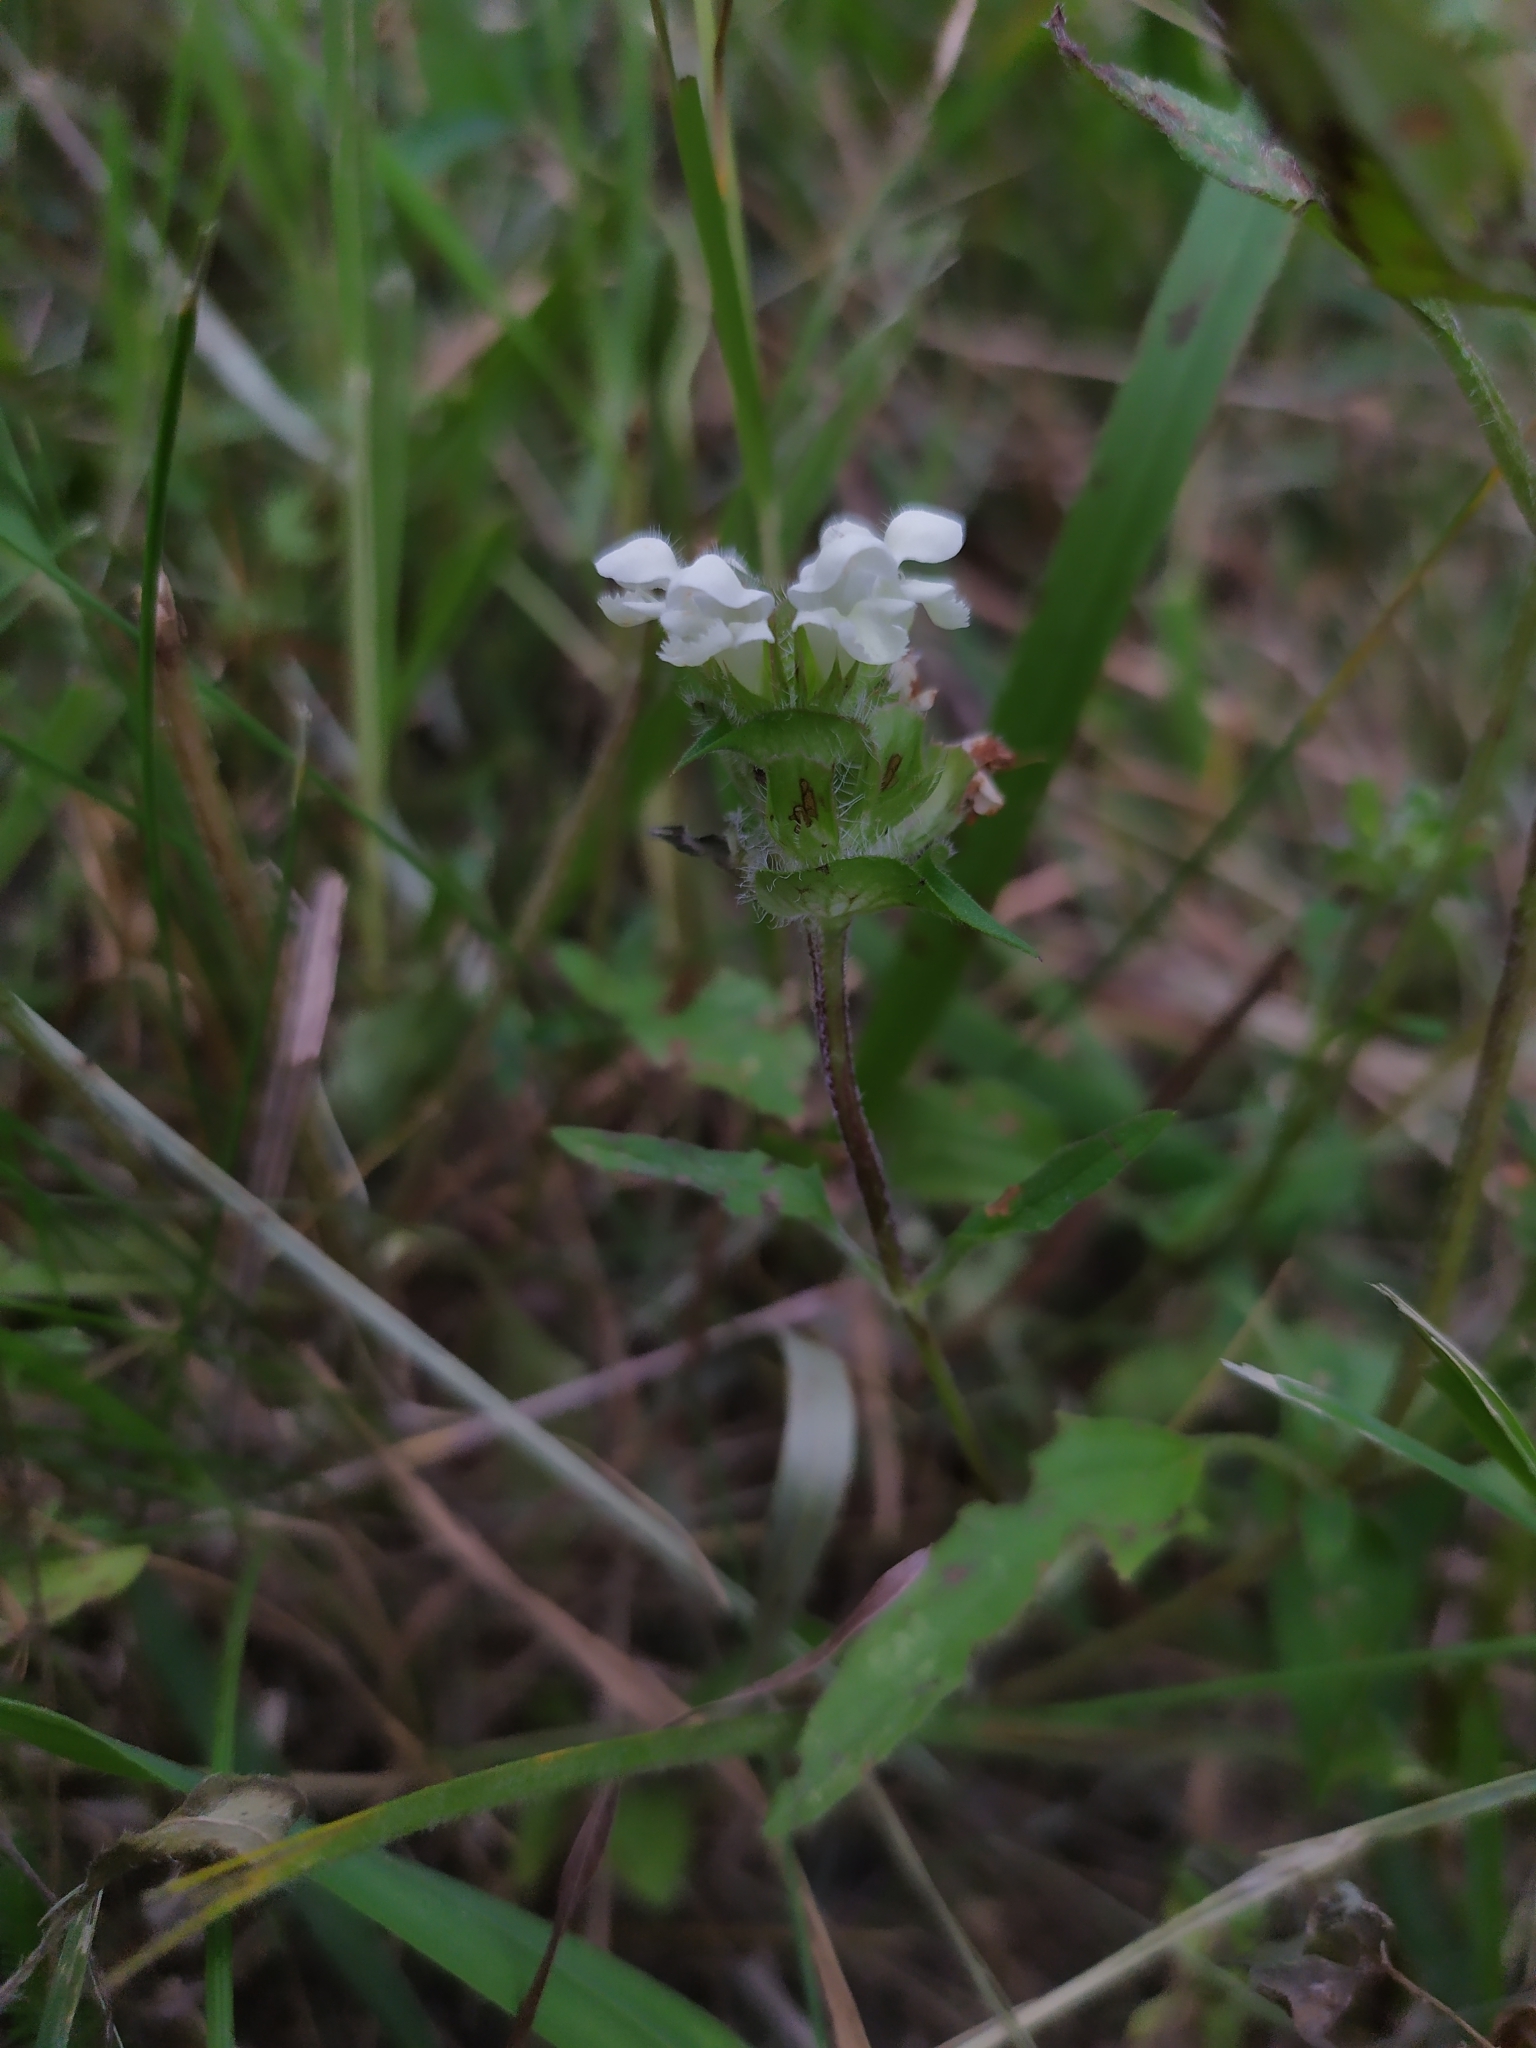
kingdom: Plantae
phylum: Tracheophyta
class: Magnoliopsida
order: Lamiales
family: Lamiaceae
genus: Prunella
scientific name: Prunella laciniata
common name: Cut-leaved selfheal
